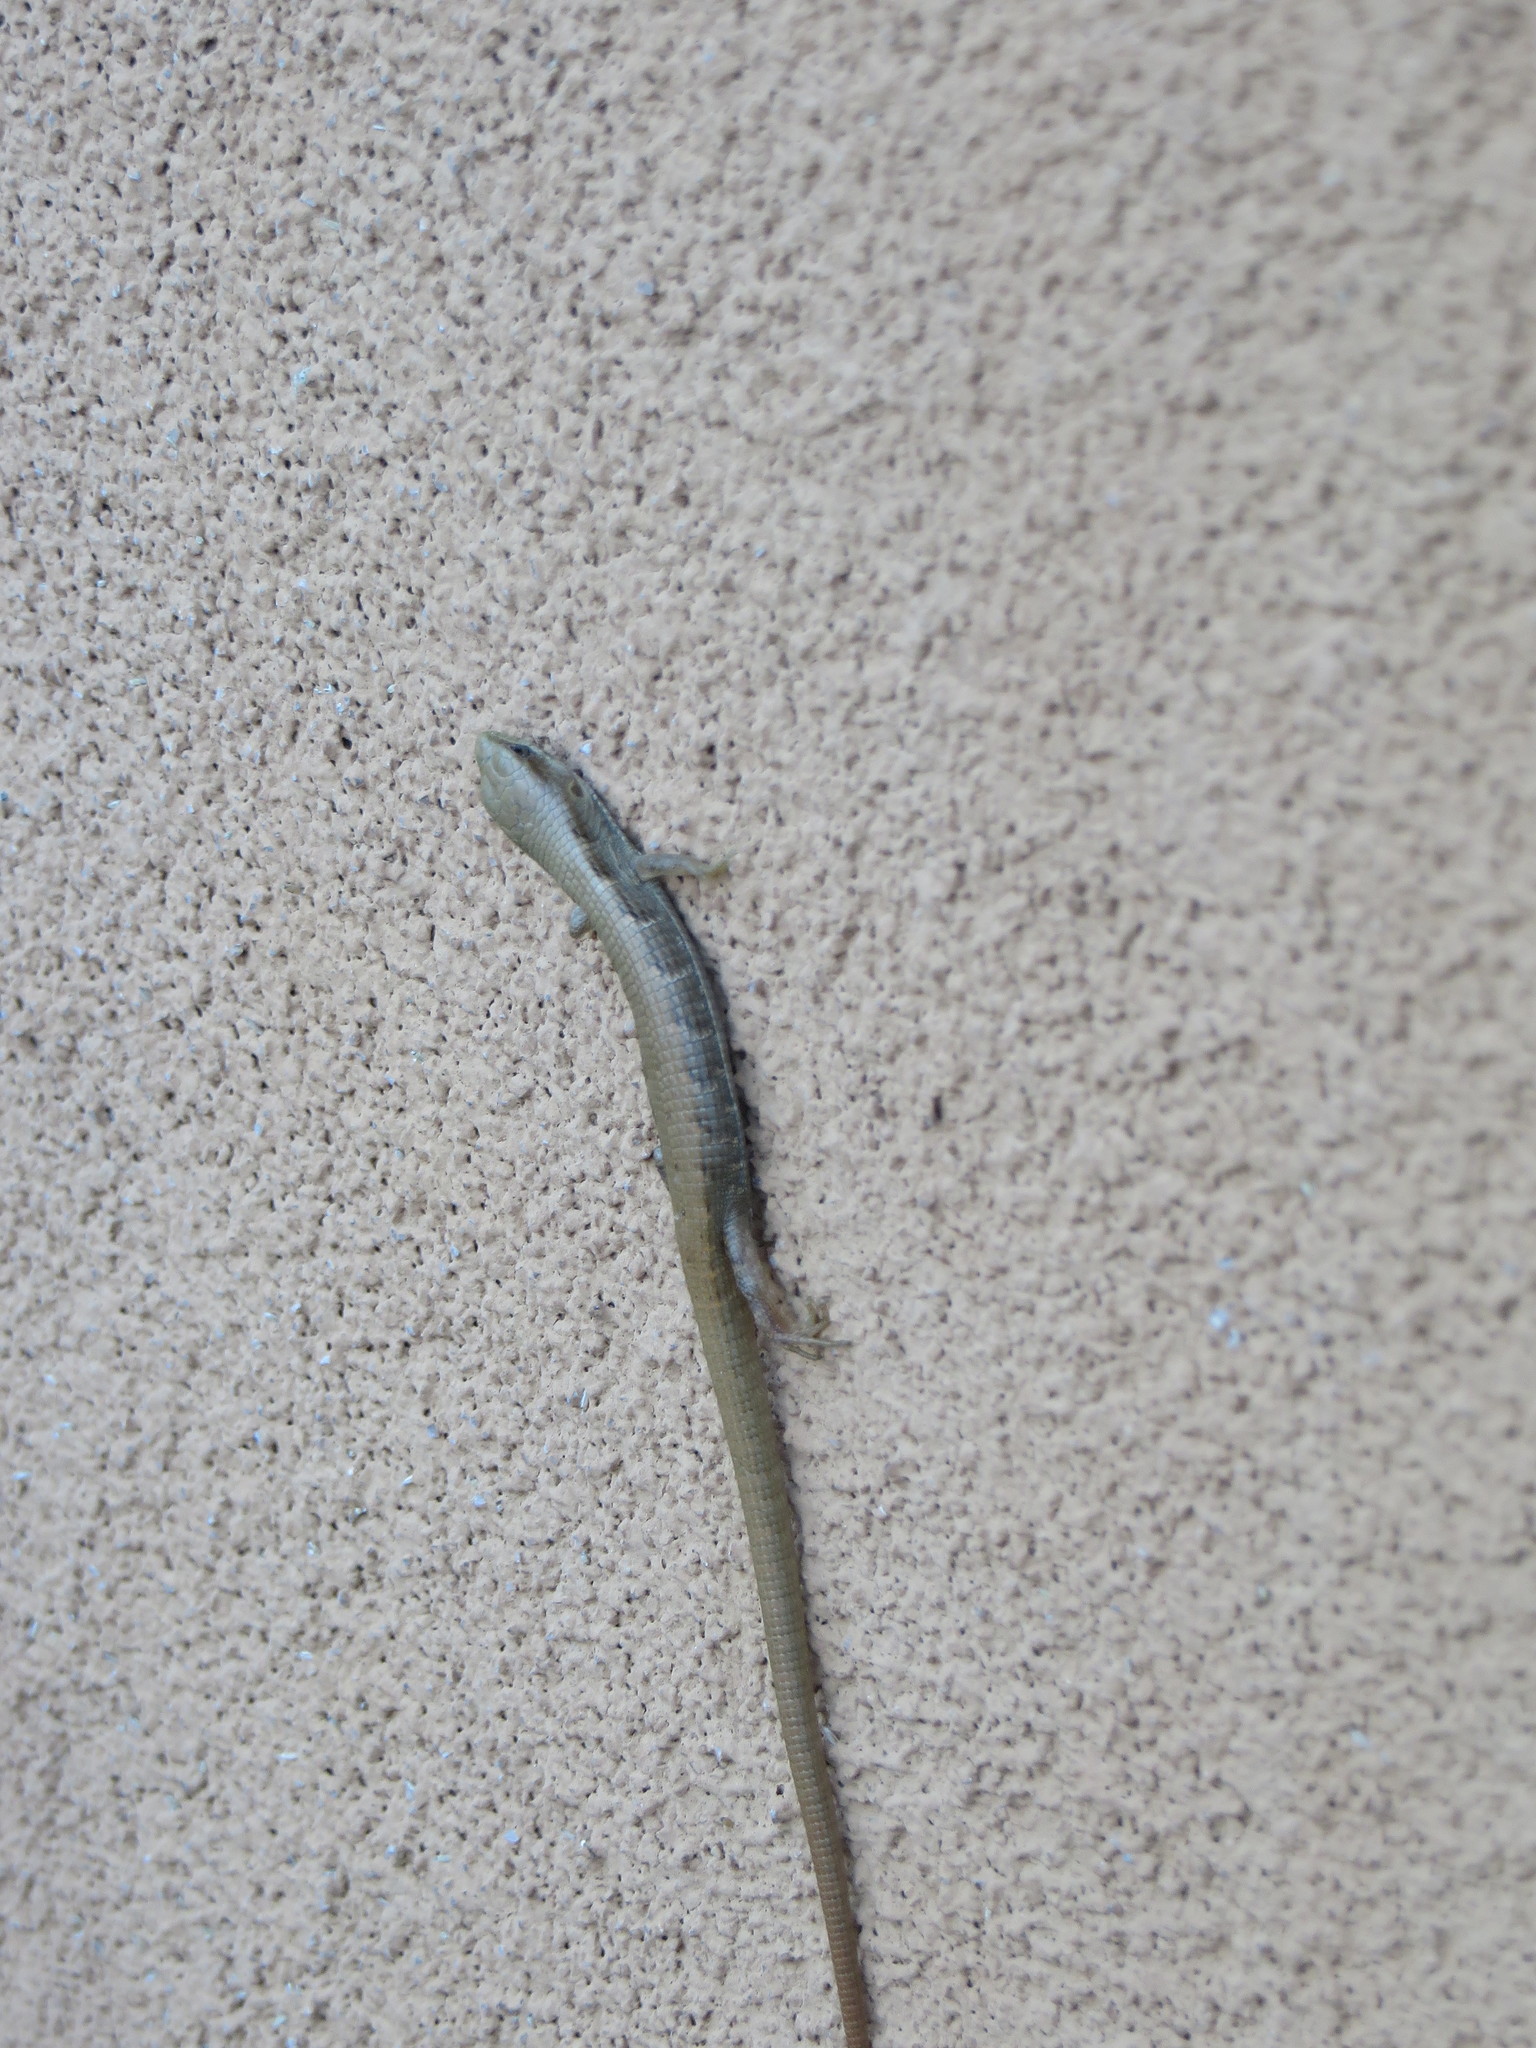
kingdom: Animalia
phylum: Chordata
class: Squamata
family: Anguidae
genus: Elgaria
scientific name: Elgaria multicarinata
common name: Southern alligator lizard
